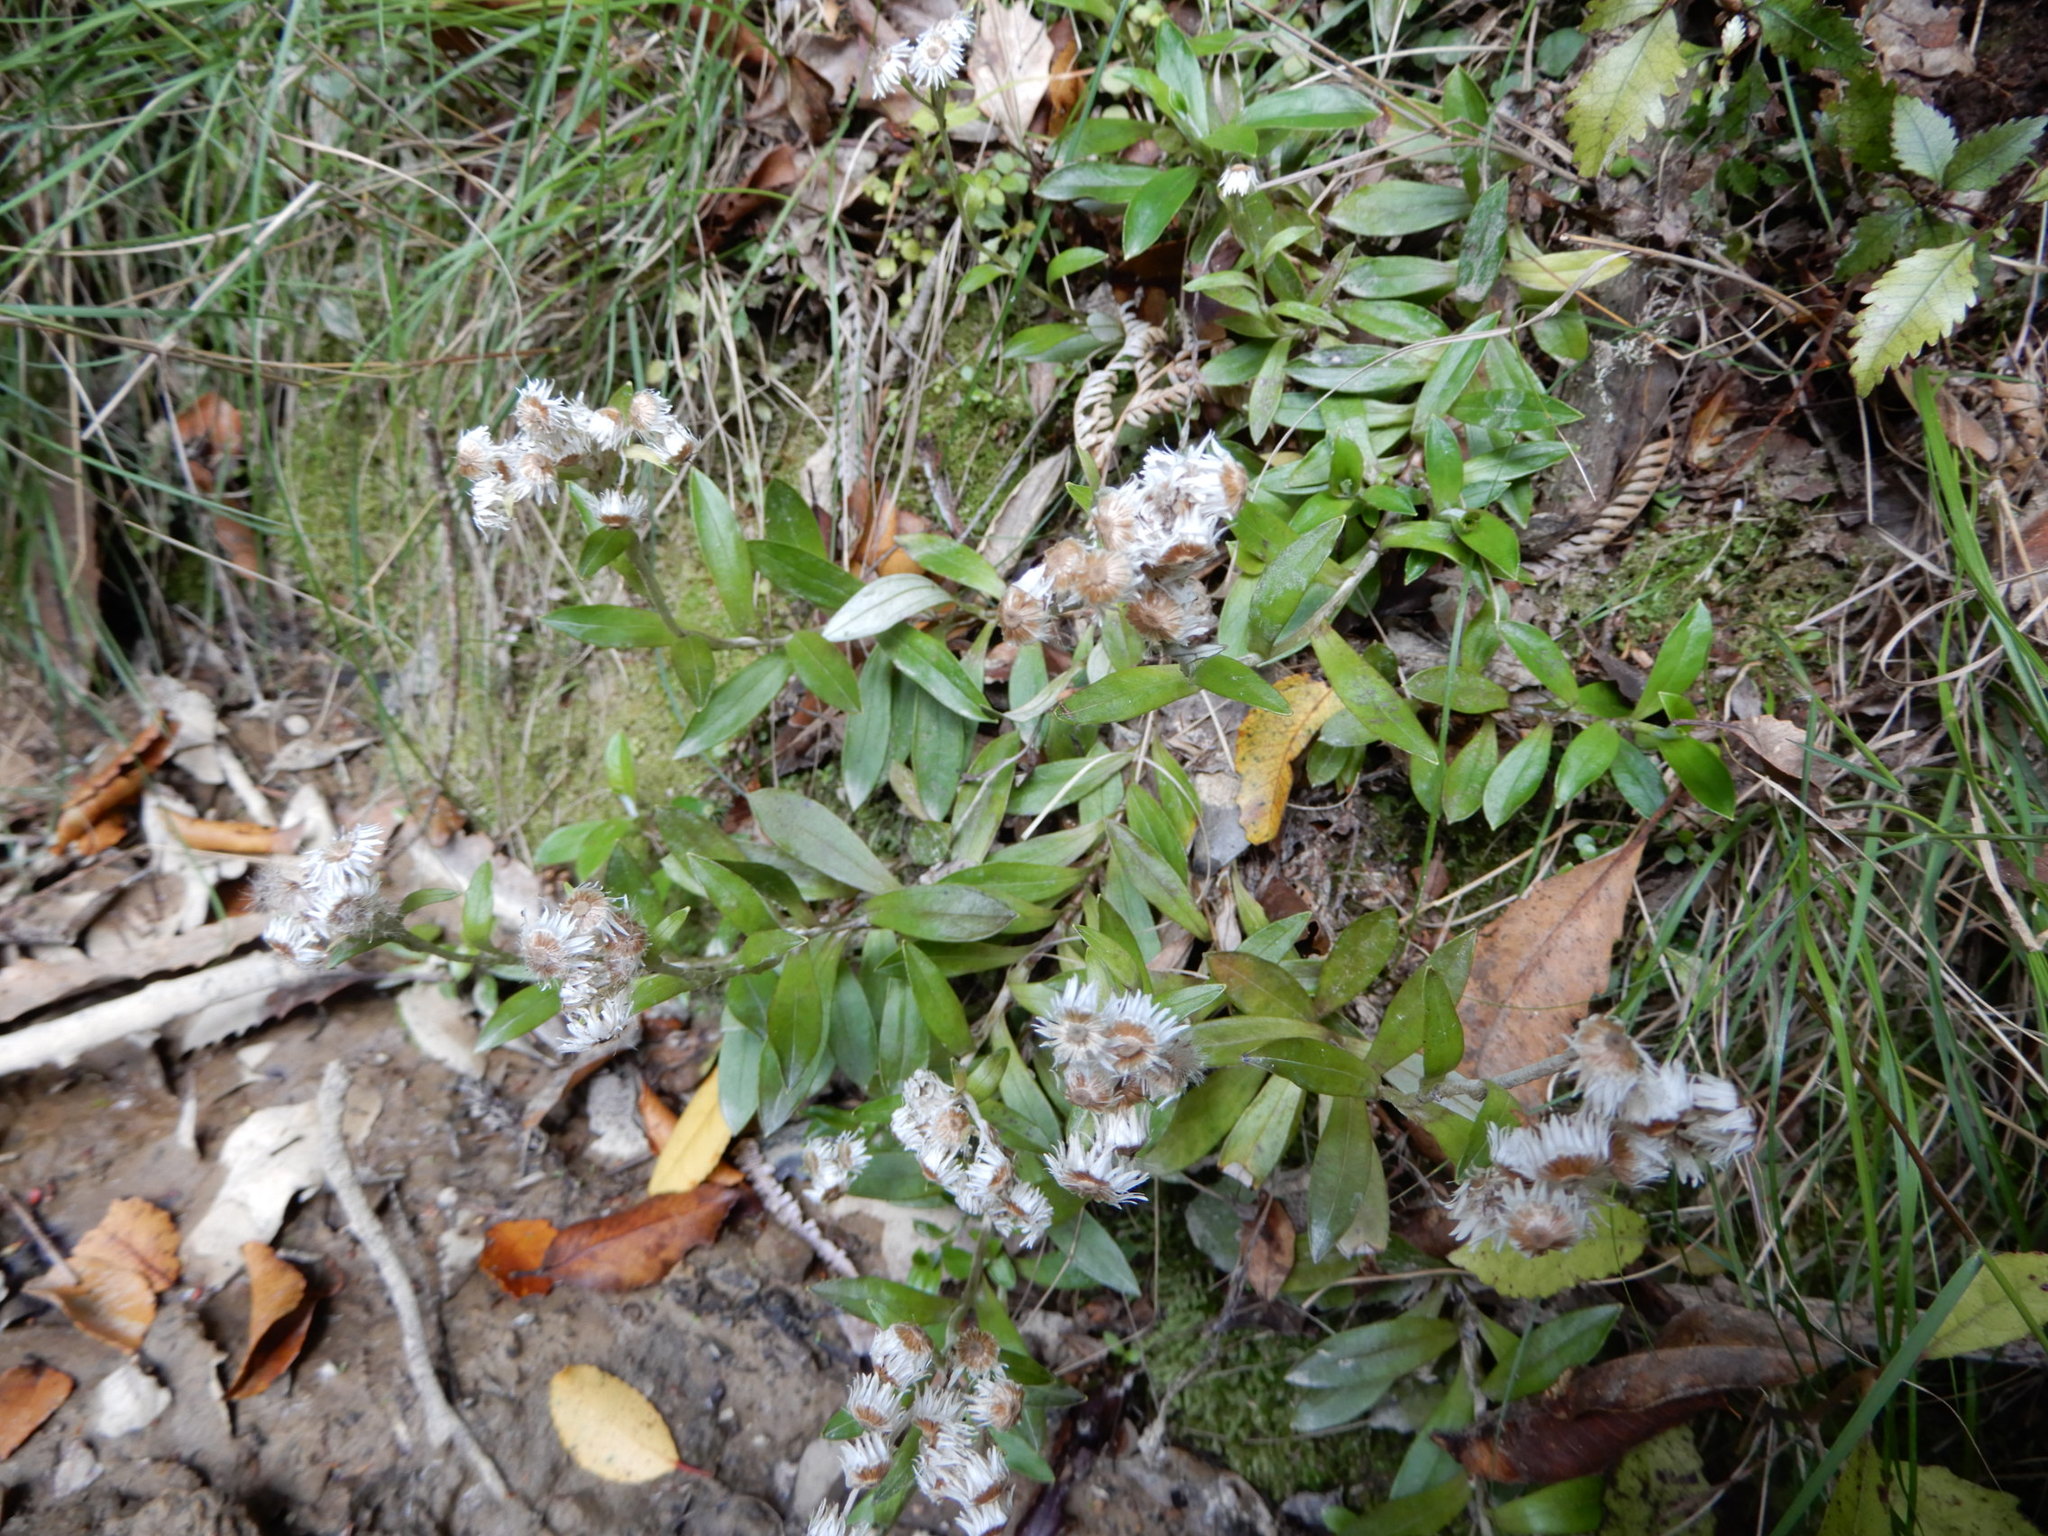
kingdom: Plantae
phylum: Tracheophyta
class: Magnoliopsida
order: Asterales
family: Asteraceae
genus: Anaphalioides
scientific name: Anaphalioides trinervis
